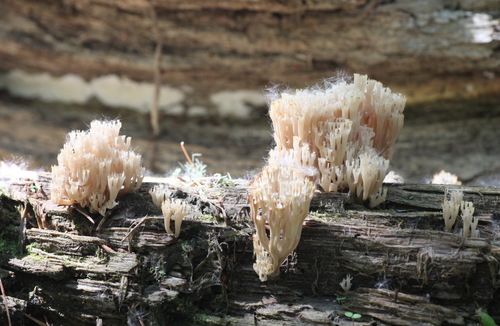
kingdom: Fungi
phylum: Basidiomycota
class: Agaricomycetes
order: Russulales
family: Auriscalpiaceae
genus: Artomyces
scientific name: Artomyces pyxidatus
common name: Crown-tipped coral fungus
